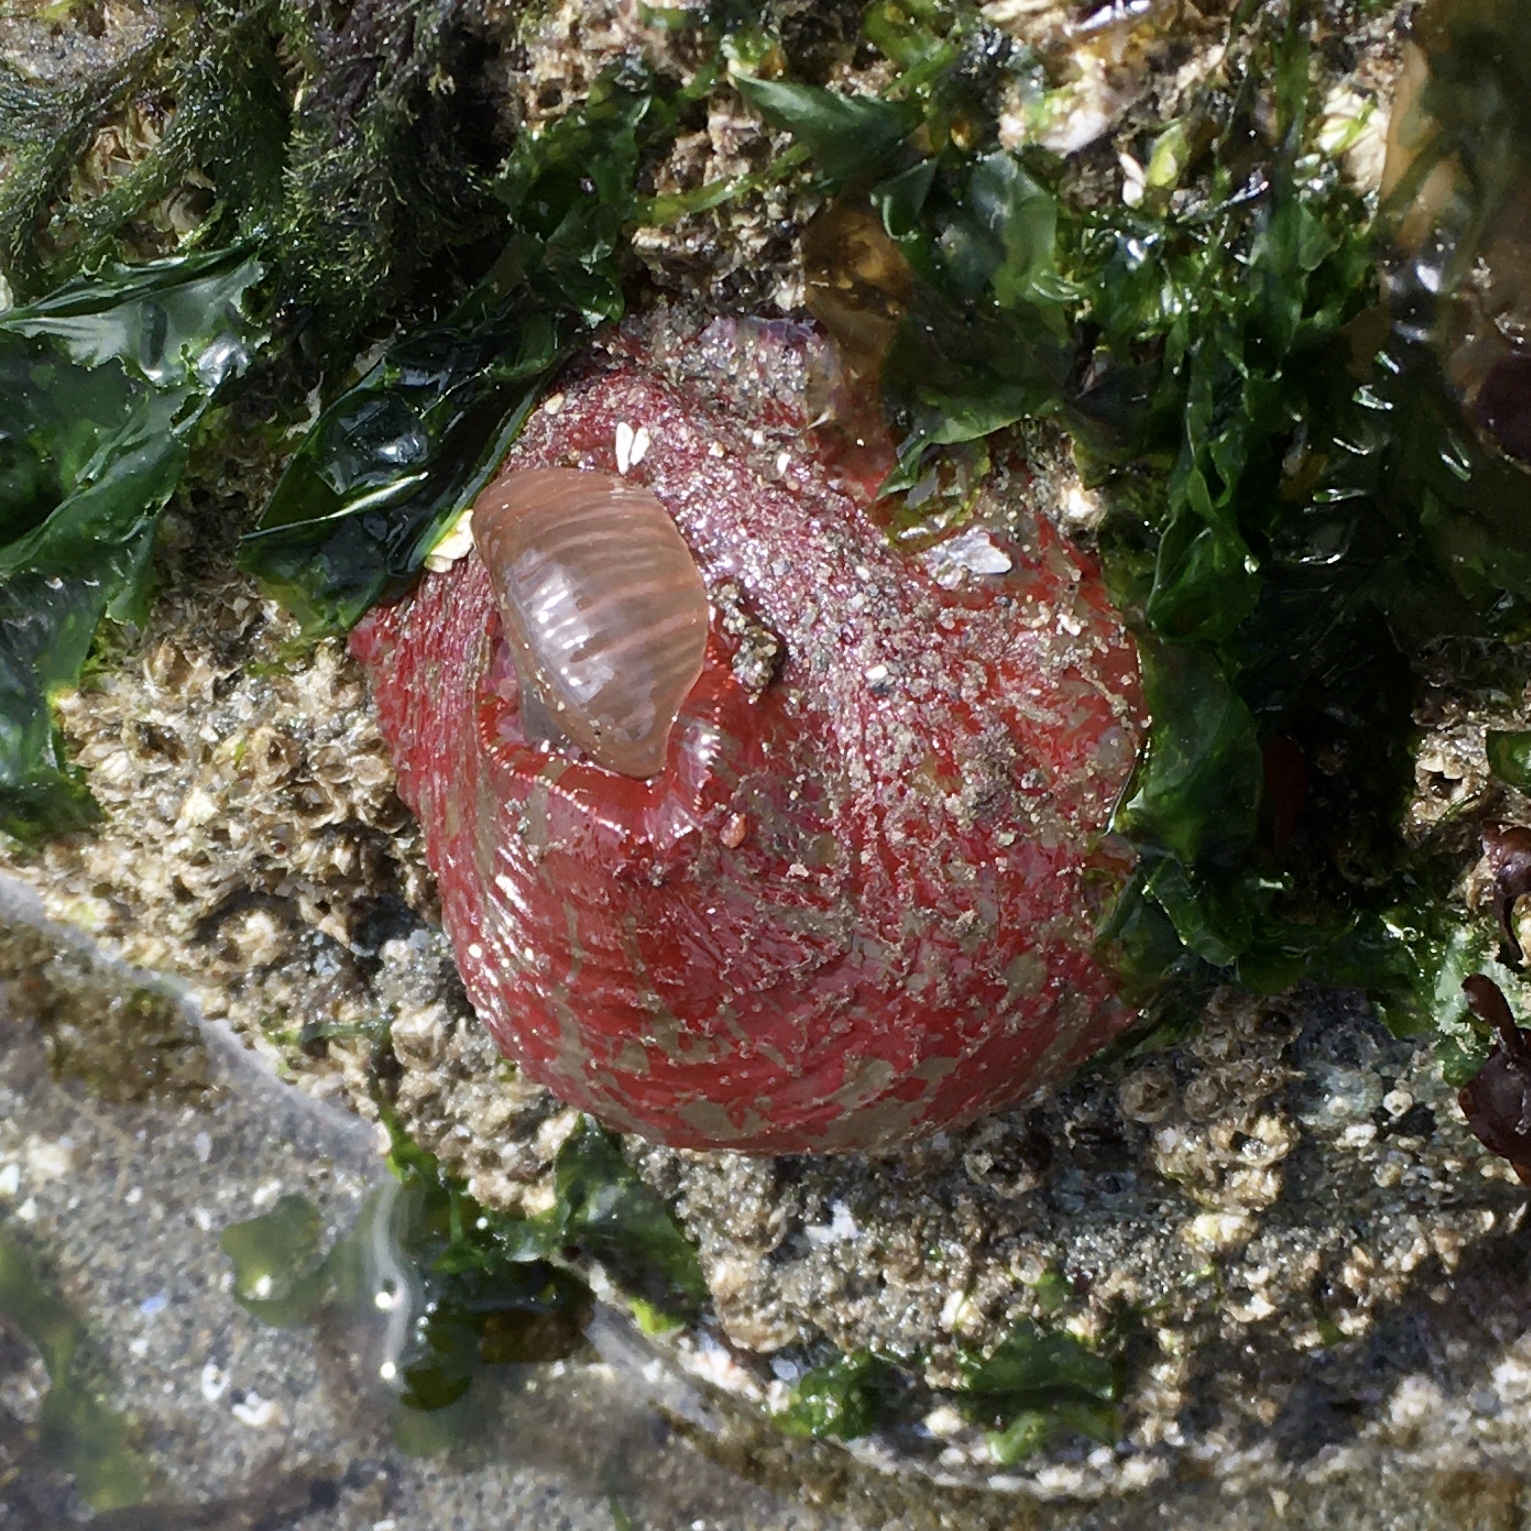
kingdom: Animalia
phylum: Cnidaria
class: Anthozoa
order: Actiniaria
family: Actiniidae
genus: Urticina
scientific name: Urticina grebelnyi
